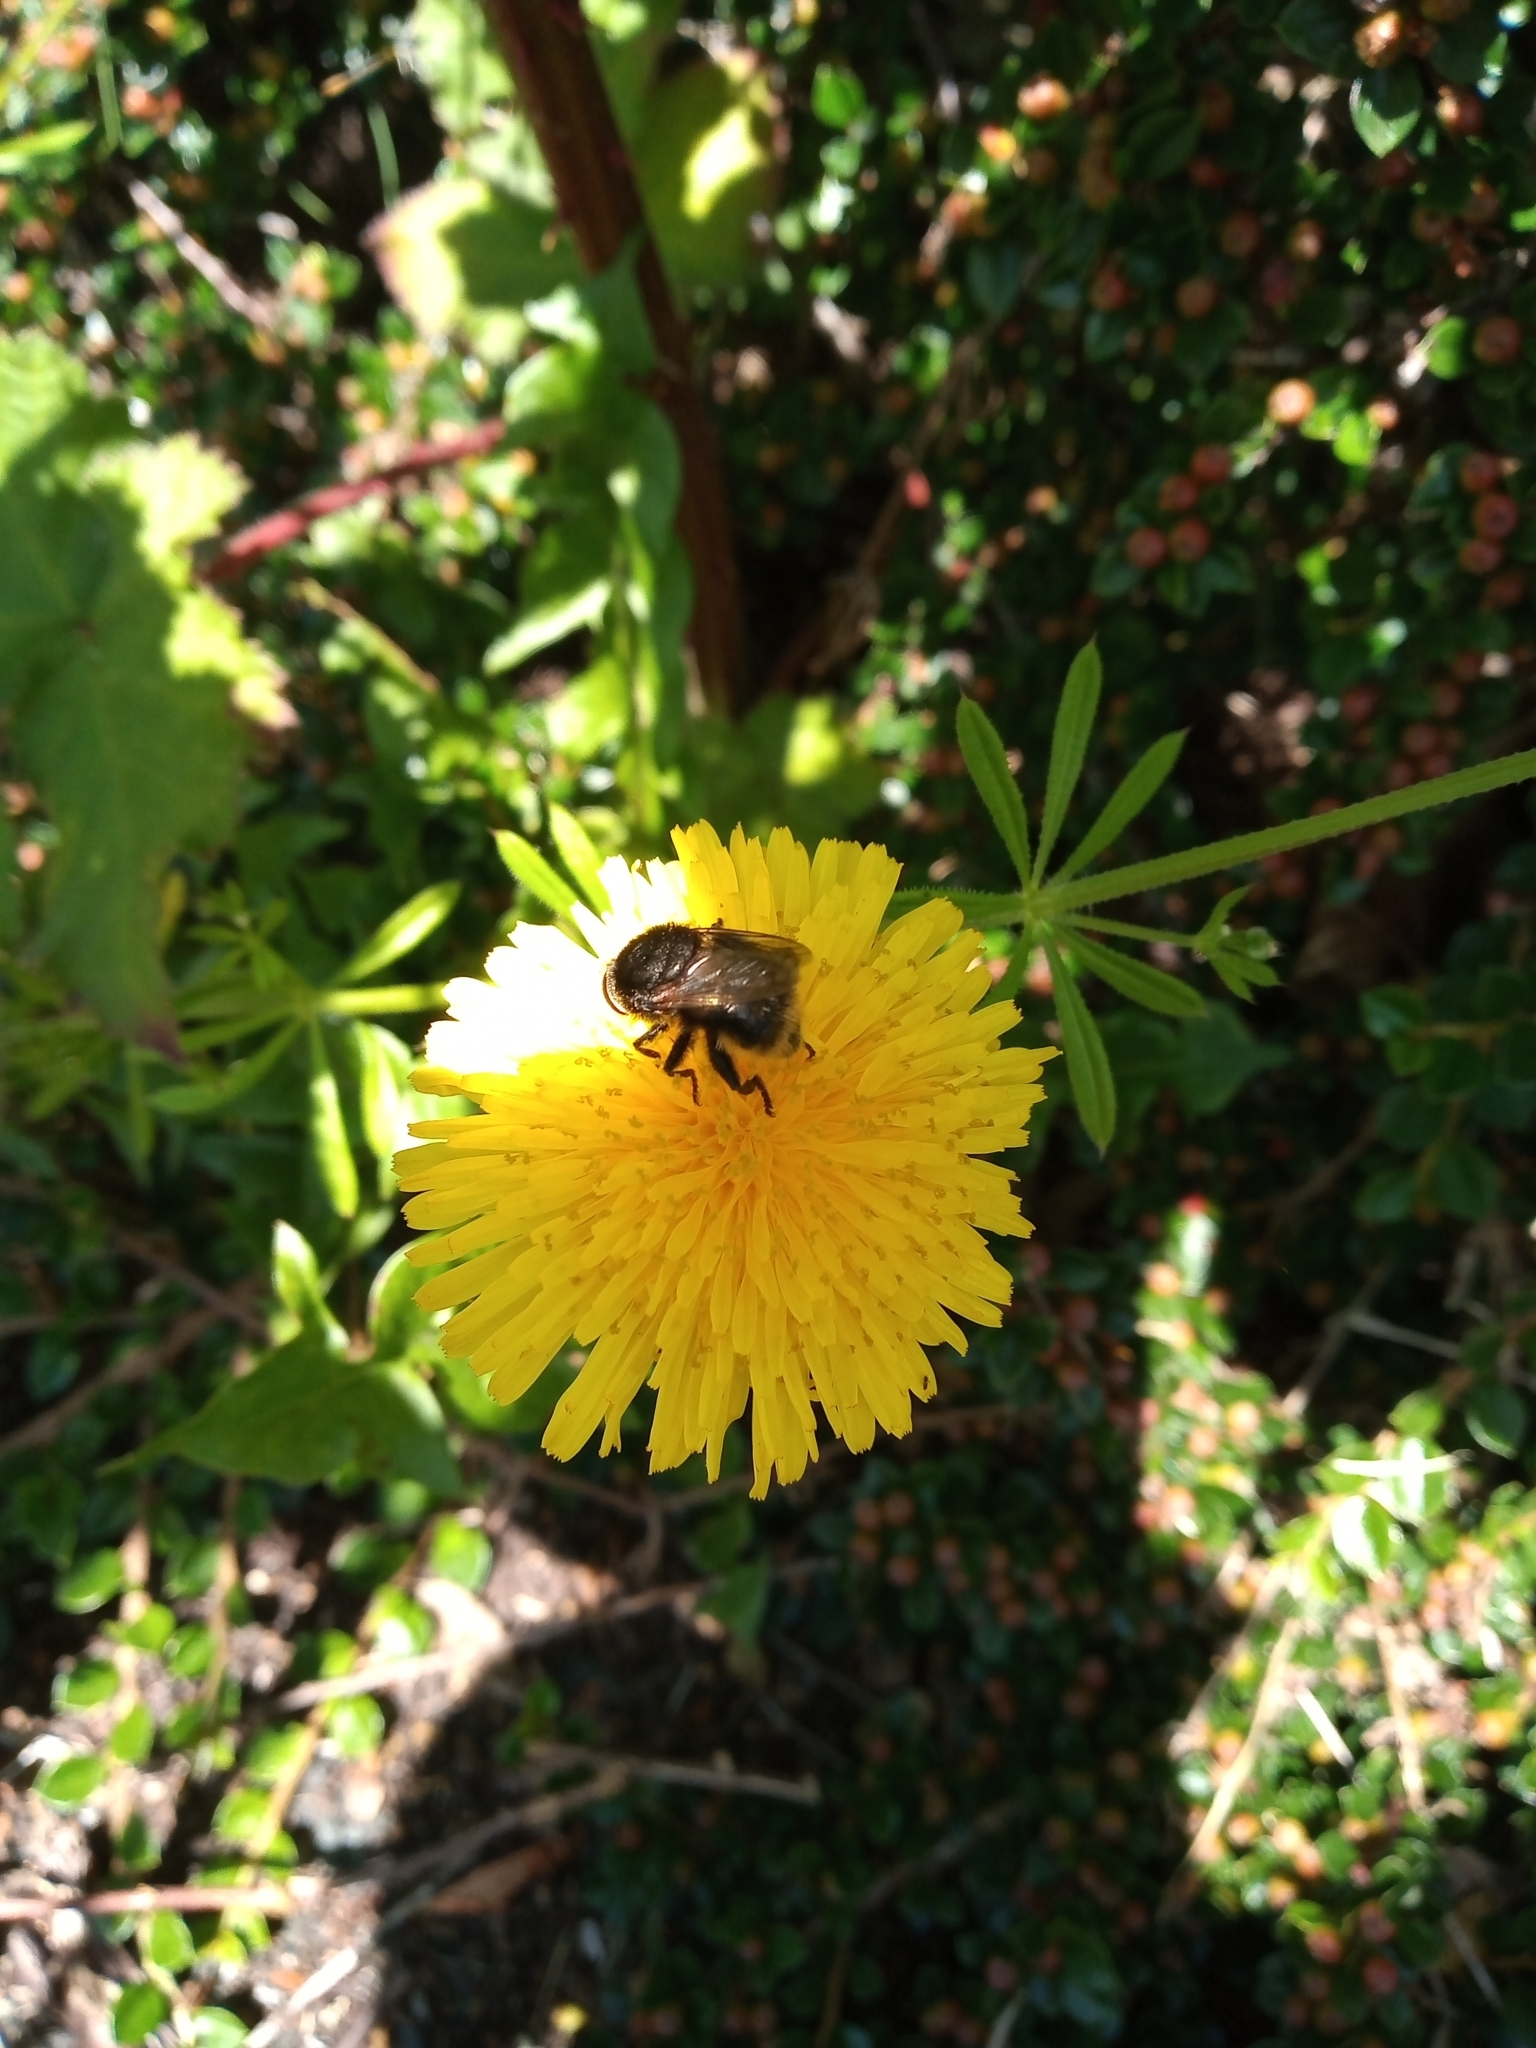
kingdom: Animalia
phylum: Arthropoda
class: Insecta
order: Diptera
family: Syrphidae
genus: Merodon
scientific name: Merodon equestris
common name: Greater bulb-fly
